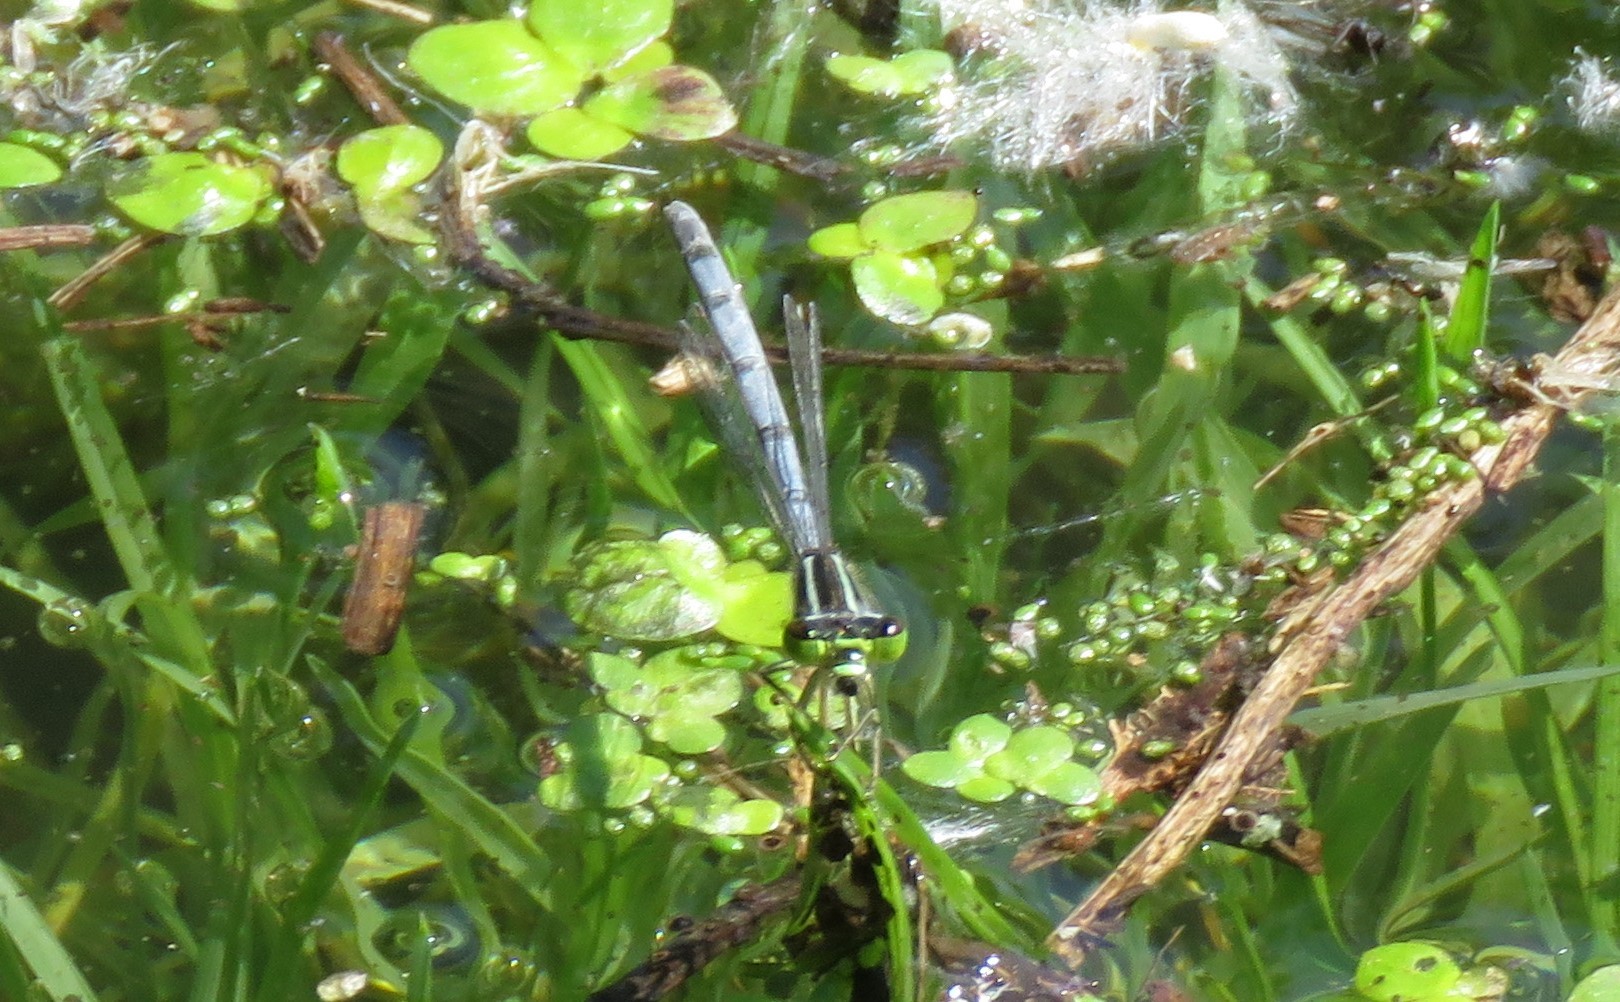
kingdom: Animalia
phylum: Arthropoda
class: Insecta
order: Odonata
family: Coenagrionidae
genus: Ischnura
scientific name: Ischnura verticalis
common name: Eastern forktail
